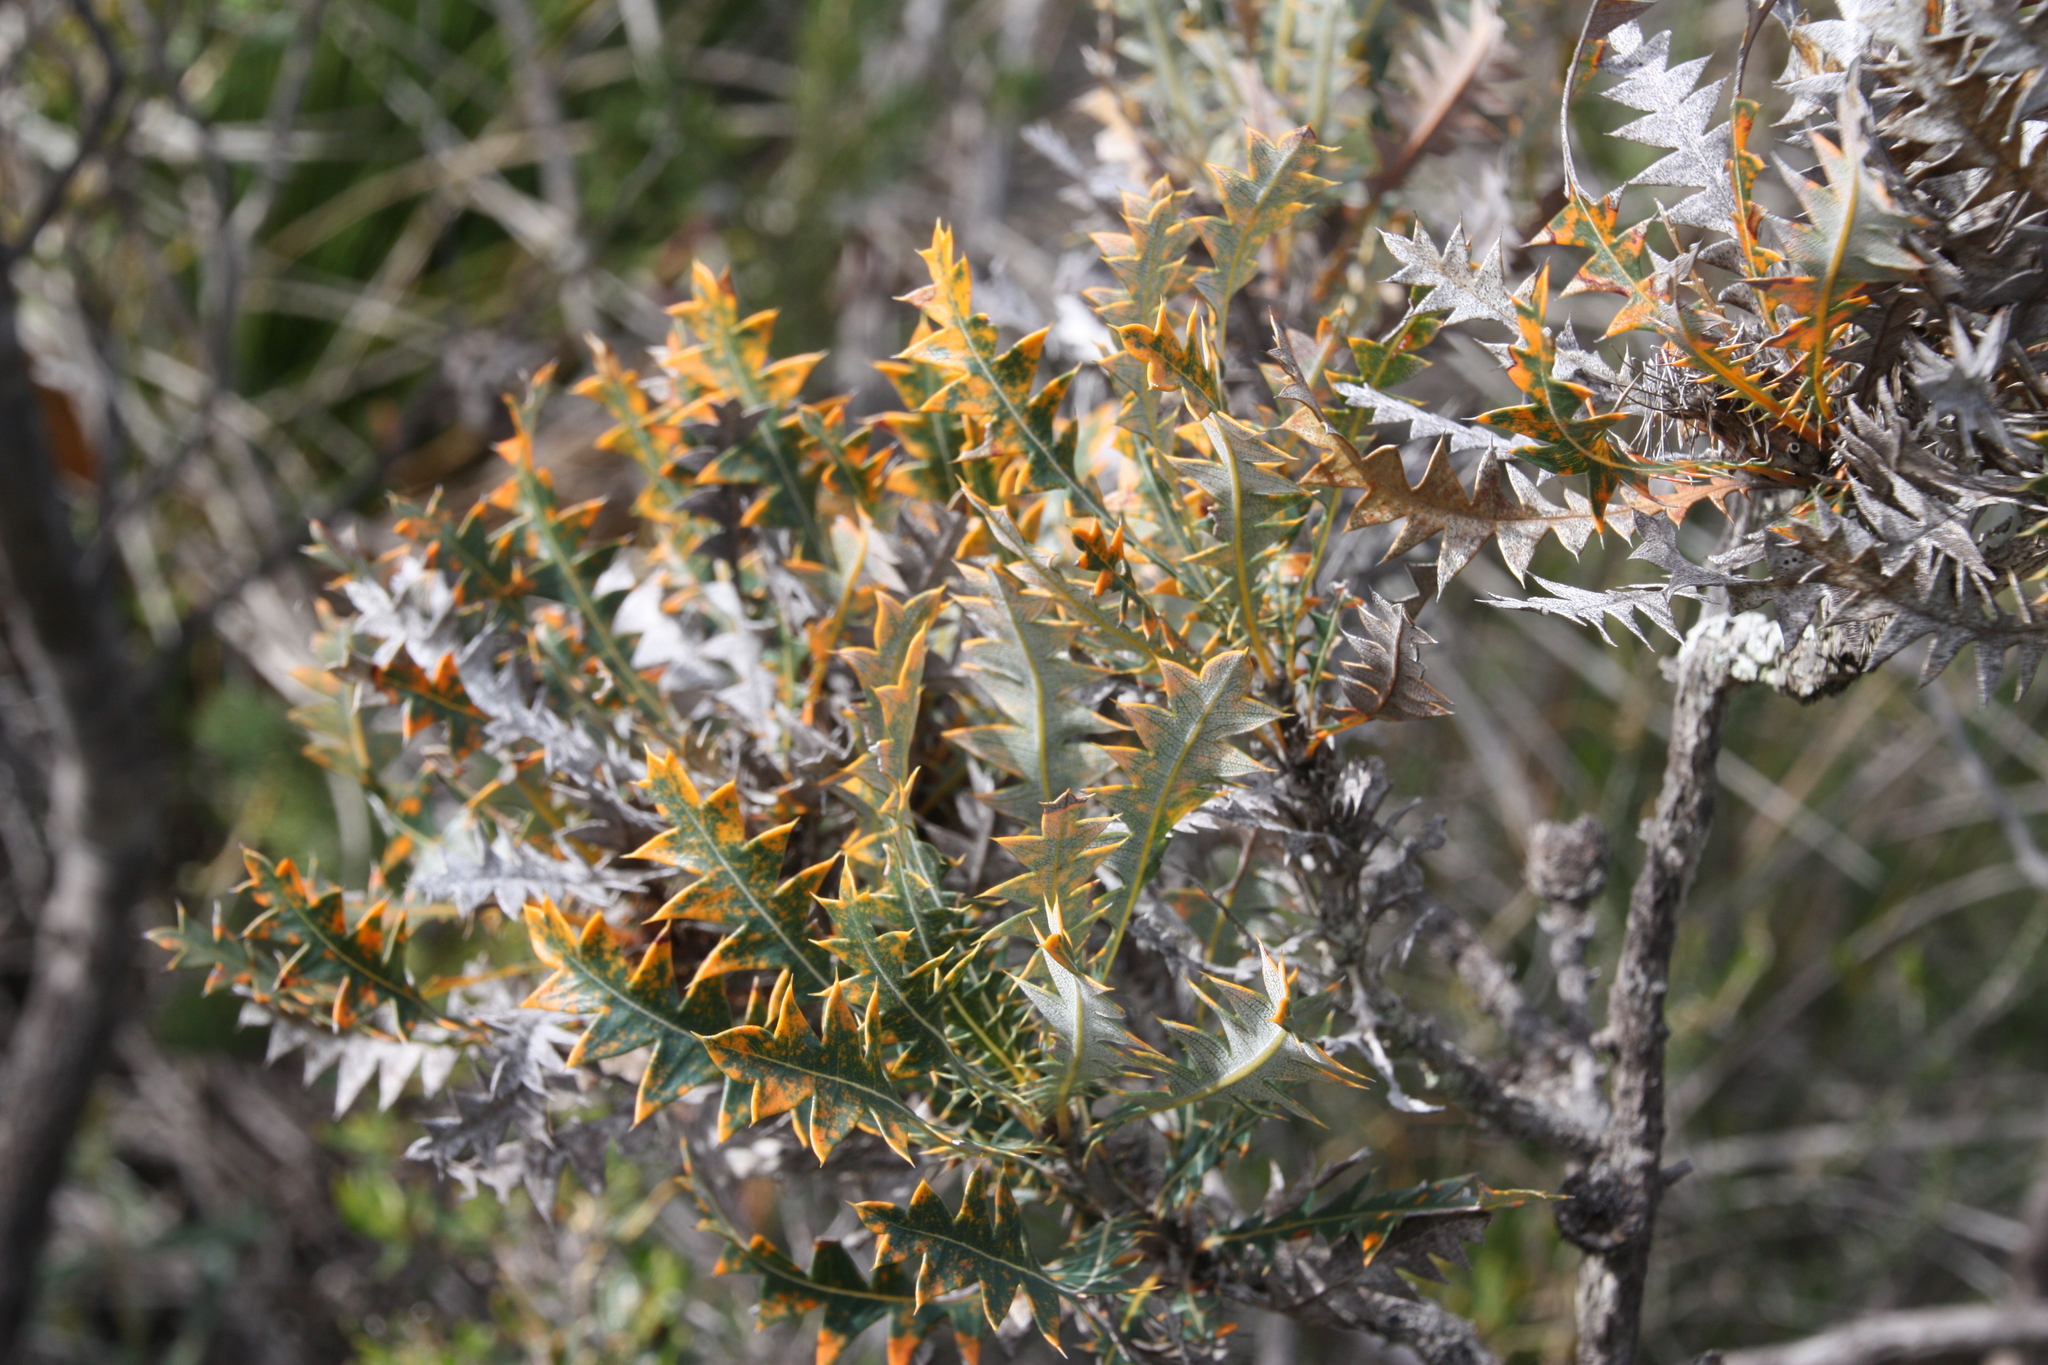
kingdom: Plantae
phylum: Tracheophyta
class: Magnoliopsida
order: Proteales
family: Proteaceae
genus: Banksia
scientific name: Banksia armata
